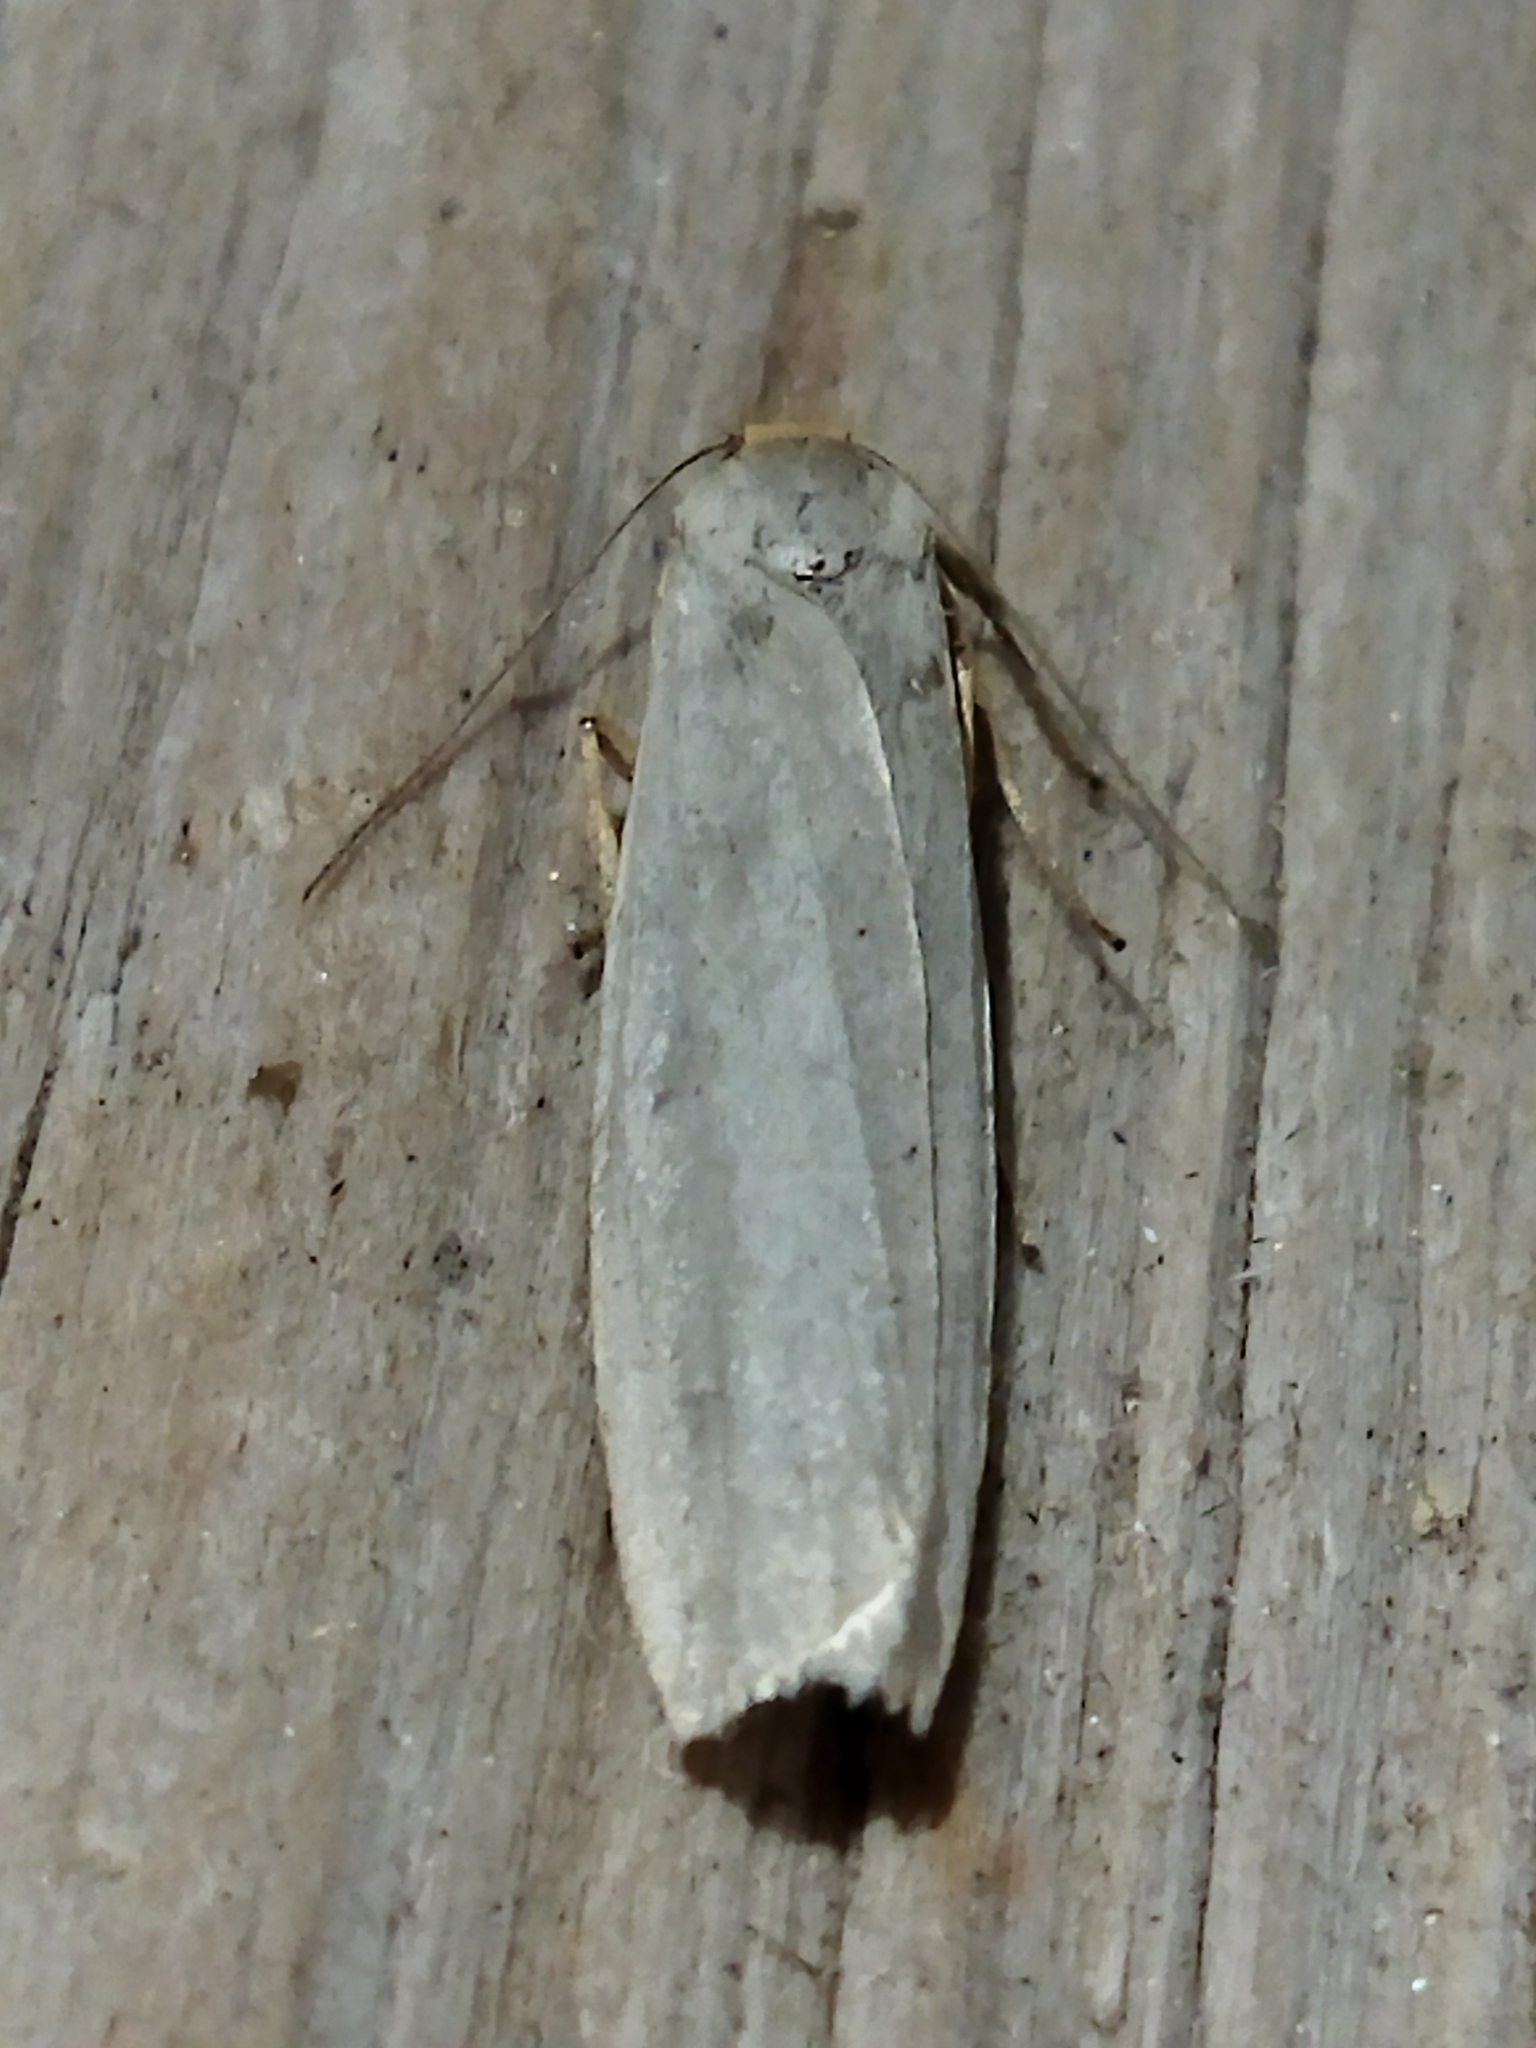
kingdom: Animalia
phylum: Arthropoda
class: Insecta
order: Lepidoptera
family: Erebidae
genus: Eilema
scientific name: Eilema caniola
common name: Hoary footman
